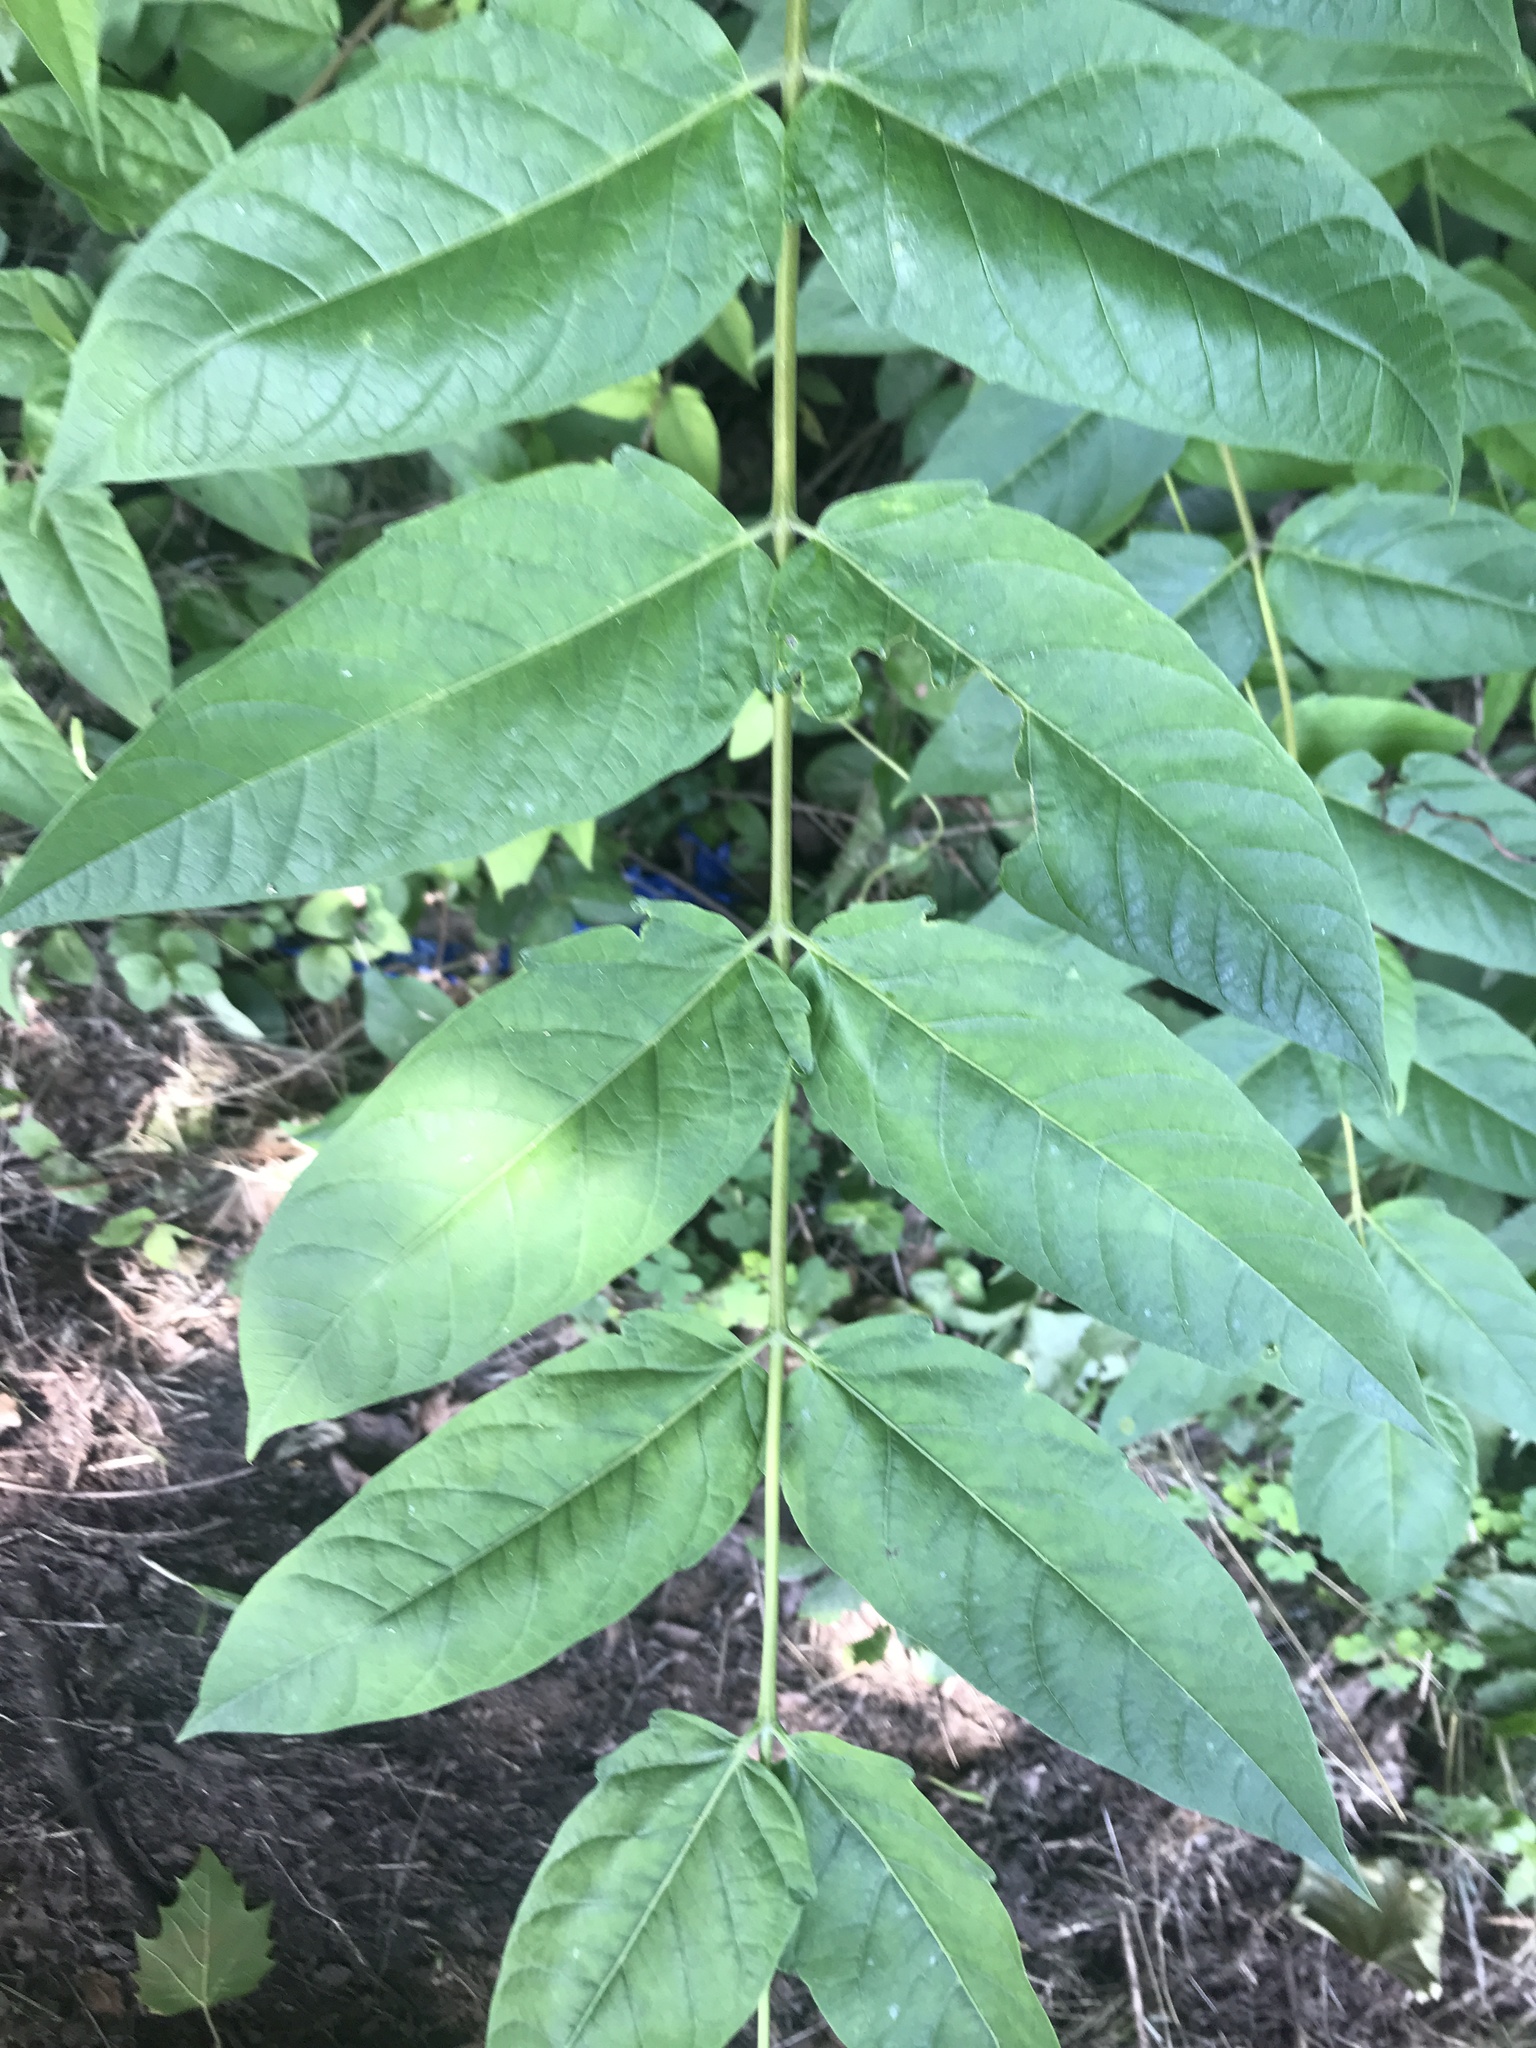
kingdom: Plantae
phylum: Tracheophyta
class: Magnoliopsida
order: Sapindales
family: Simaroubaceae
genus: Ailanthus
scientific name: Ailanthus altissima
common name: Tree-of-heaven
